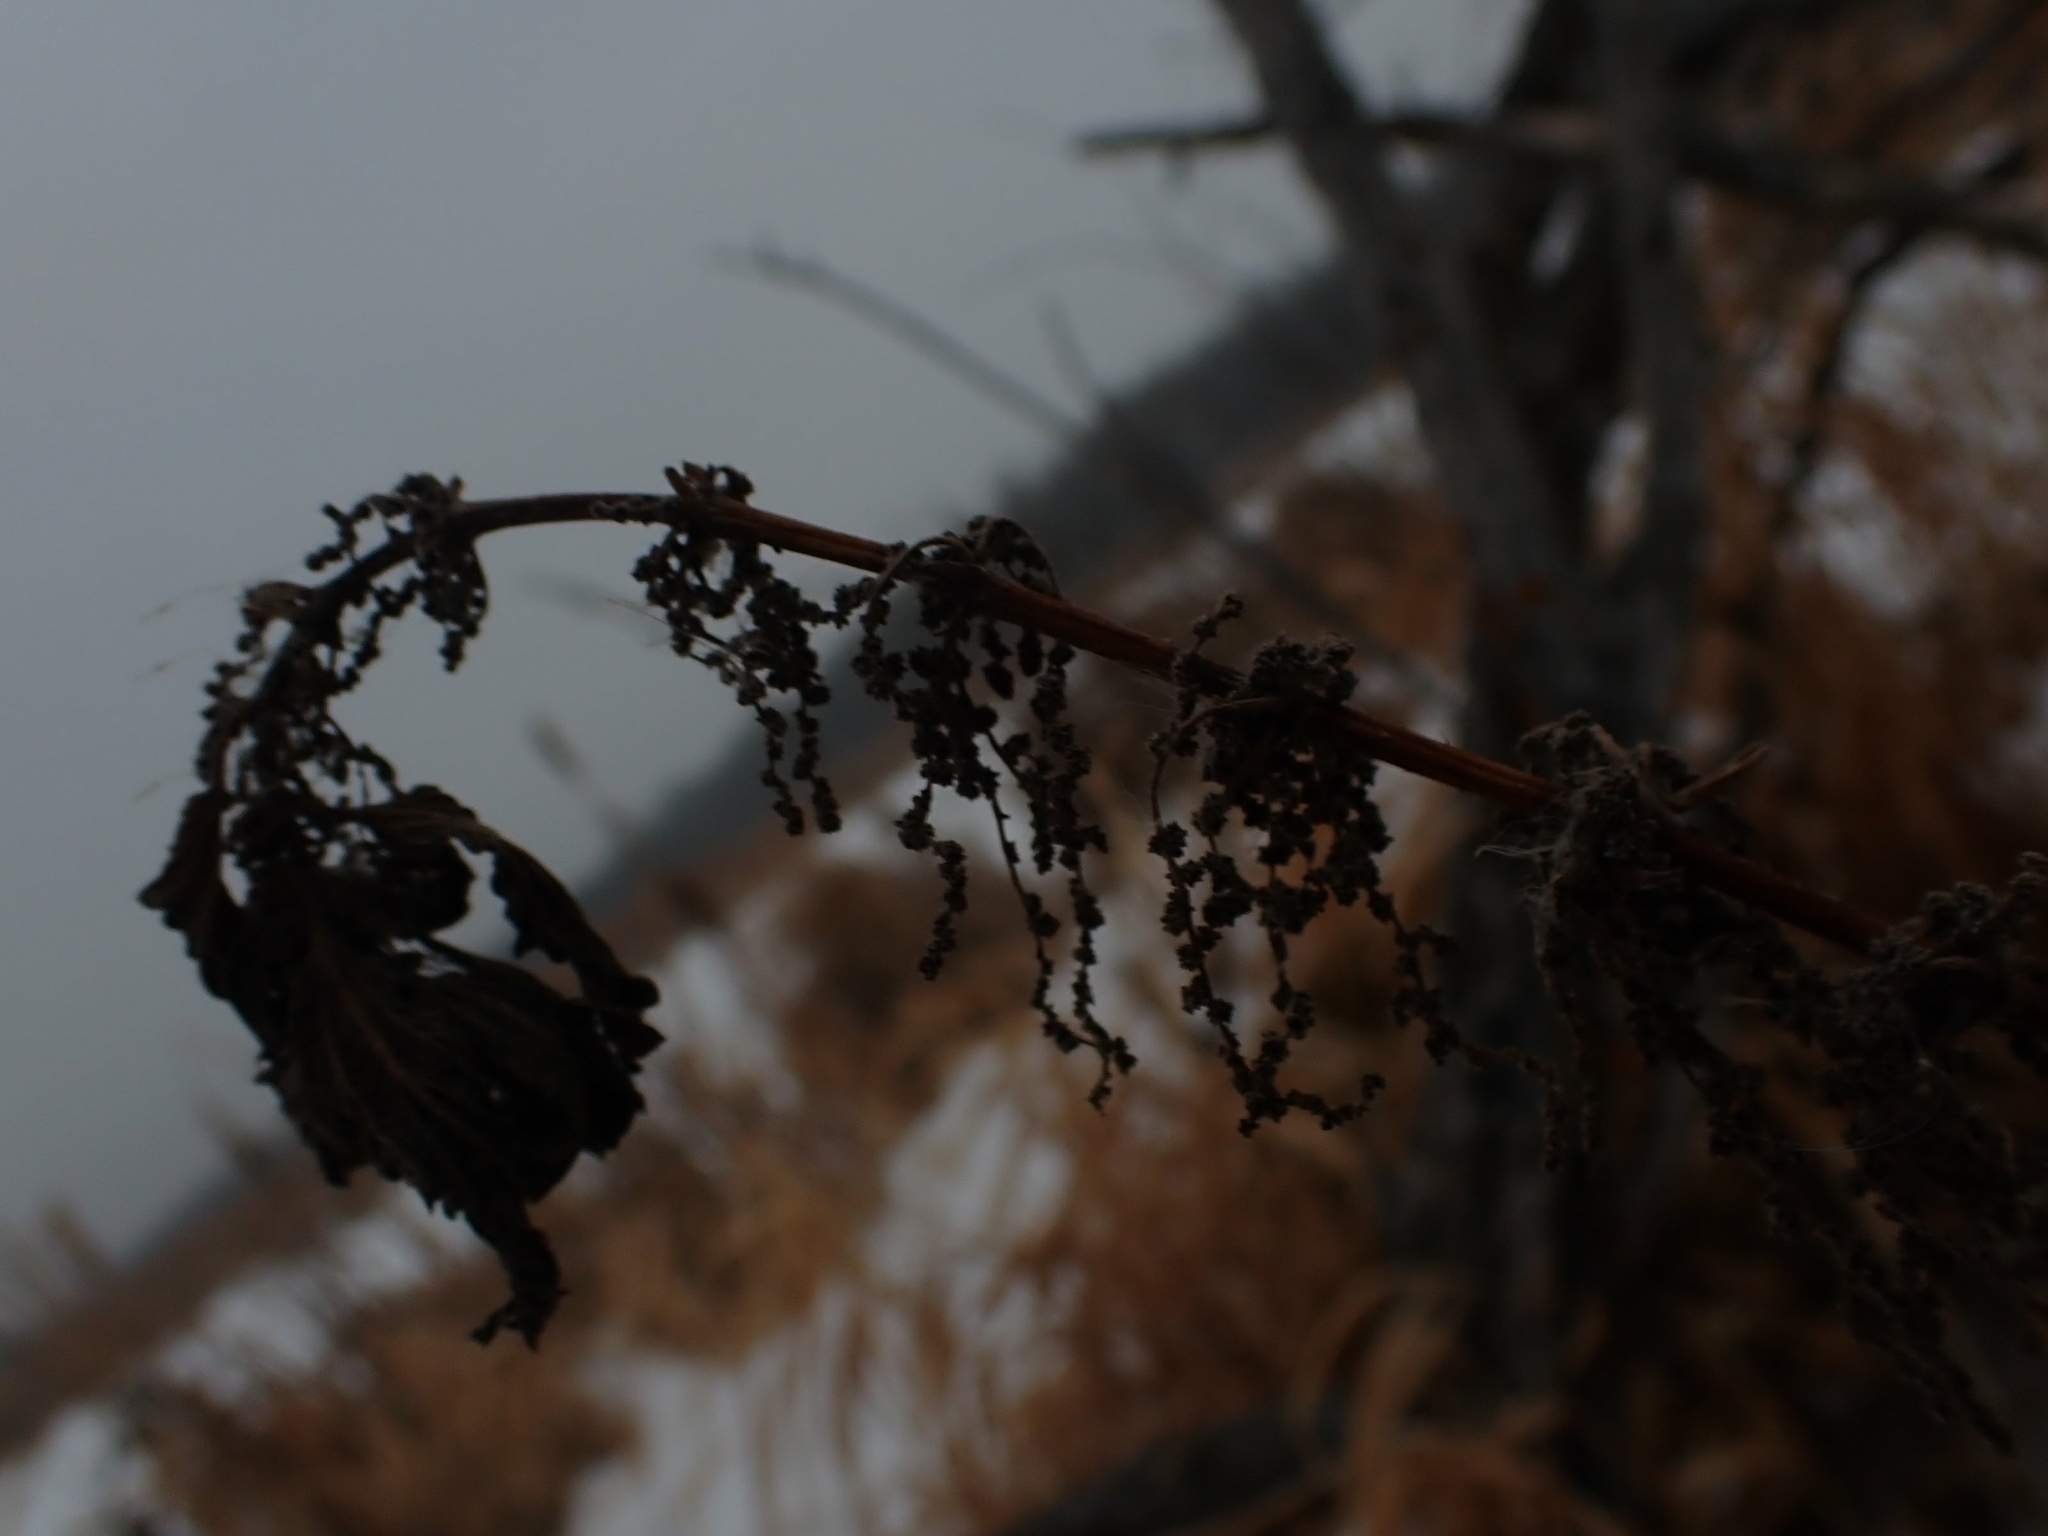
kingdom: Plantae
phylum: Tracheophyta
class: Magnoliopsida
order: Rosales
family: Urticaceae
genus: Urtica
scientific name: Urtica gracilis
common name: Slender stinging nettle
